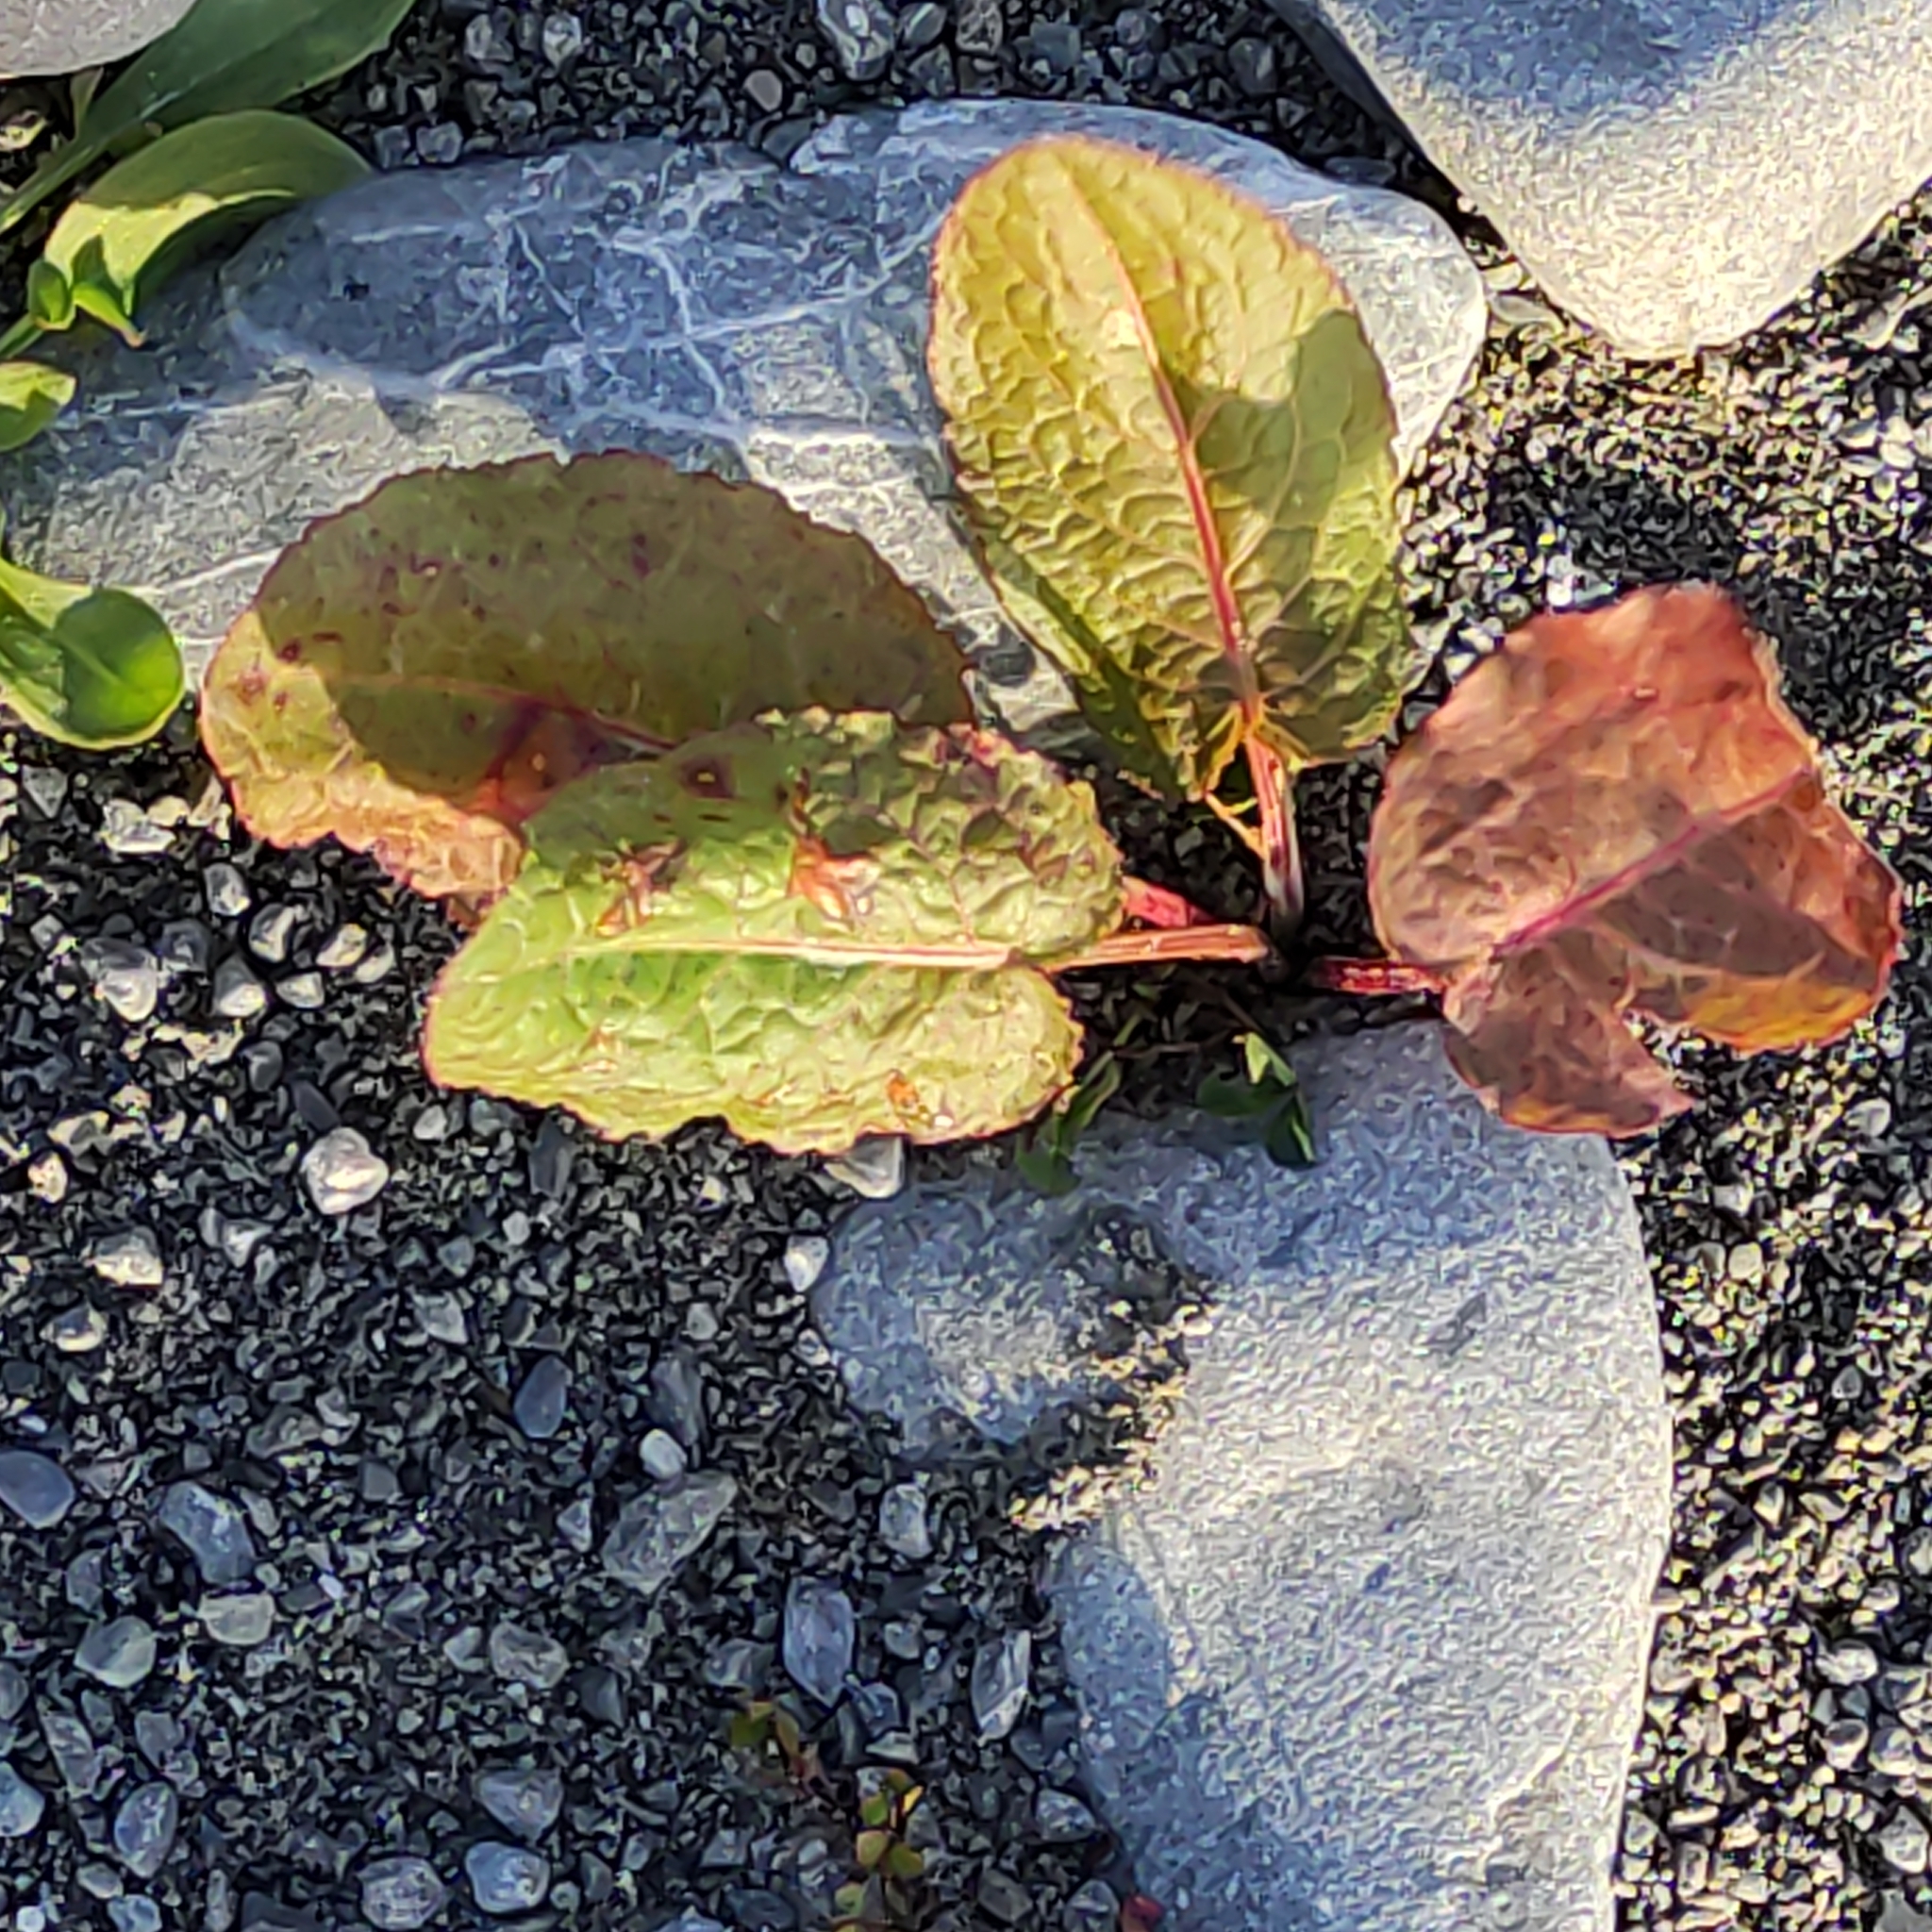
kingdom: Plantae
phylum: Tracheophyta
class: Magnoliopsida
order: Caryophyllales
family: Polygonaceae
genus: Rumex
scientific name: Rumex obtusifolius
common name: Bitter dock
